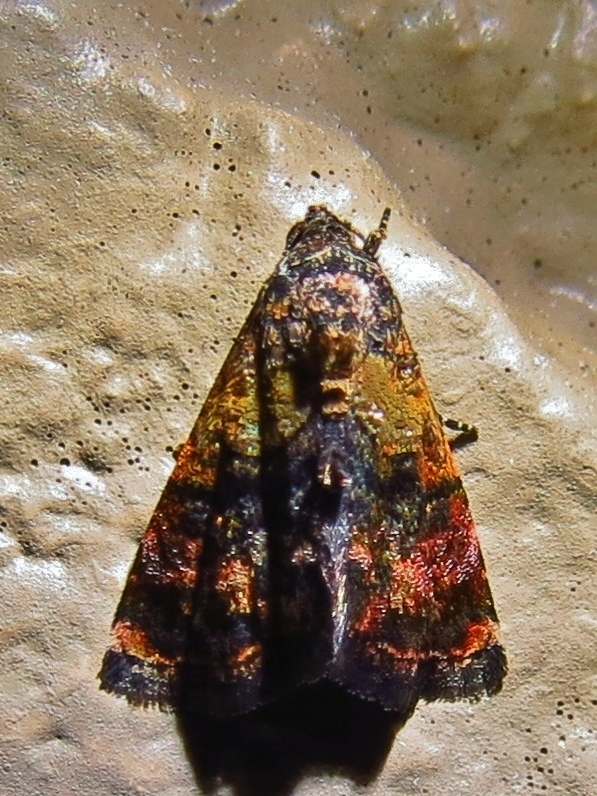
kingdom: Animalia
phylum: Arthropoda
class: Insecta
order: Lepidoptera
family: Noctuidae
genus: Tripudia
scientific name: Tripudia flavofasciata
